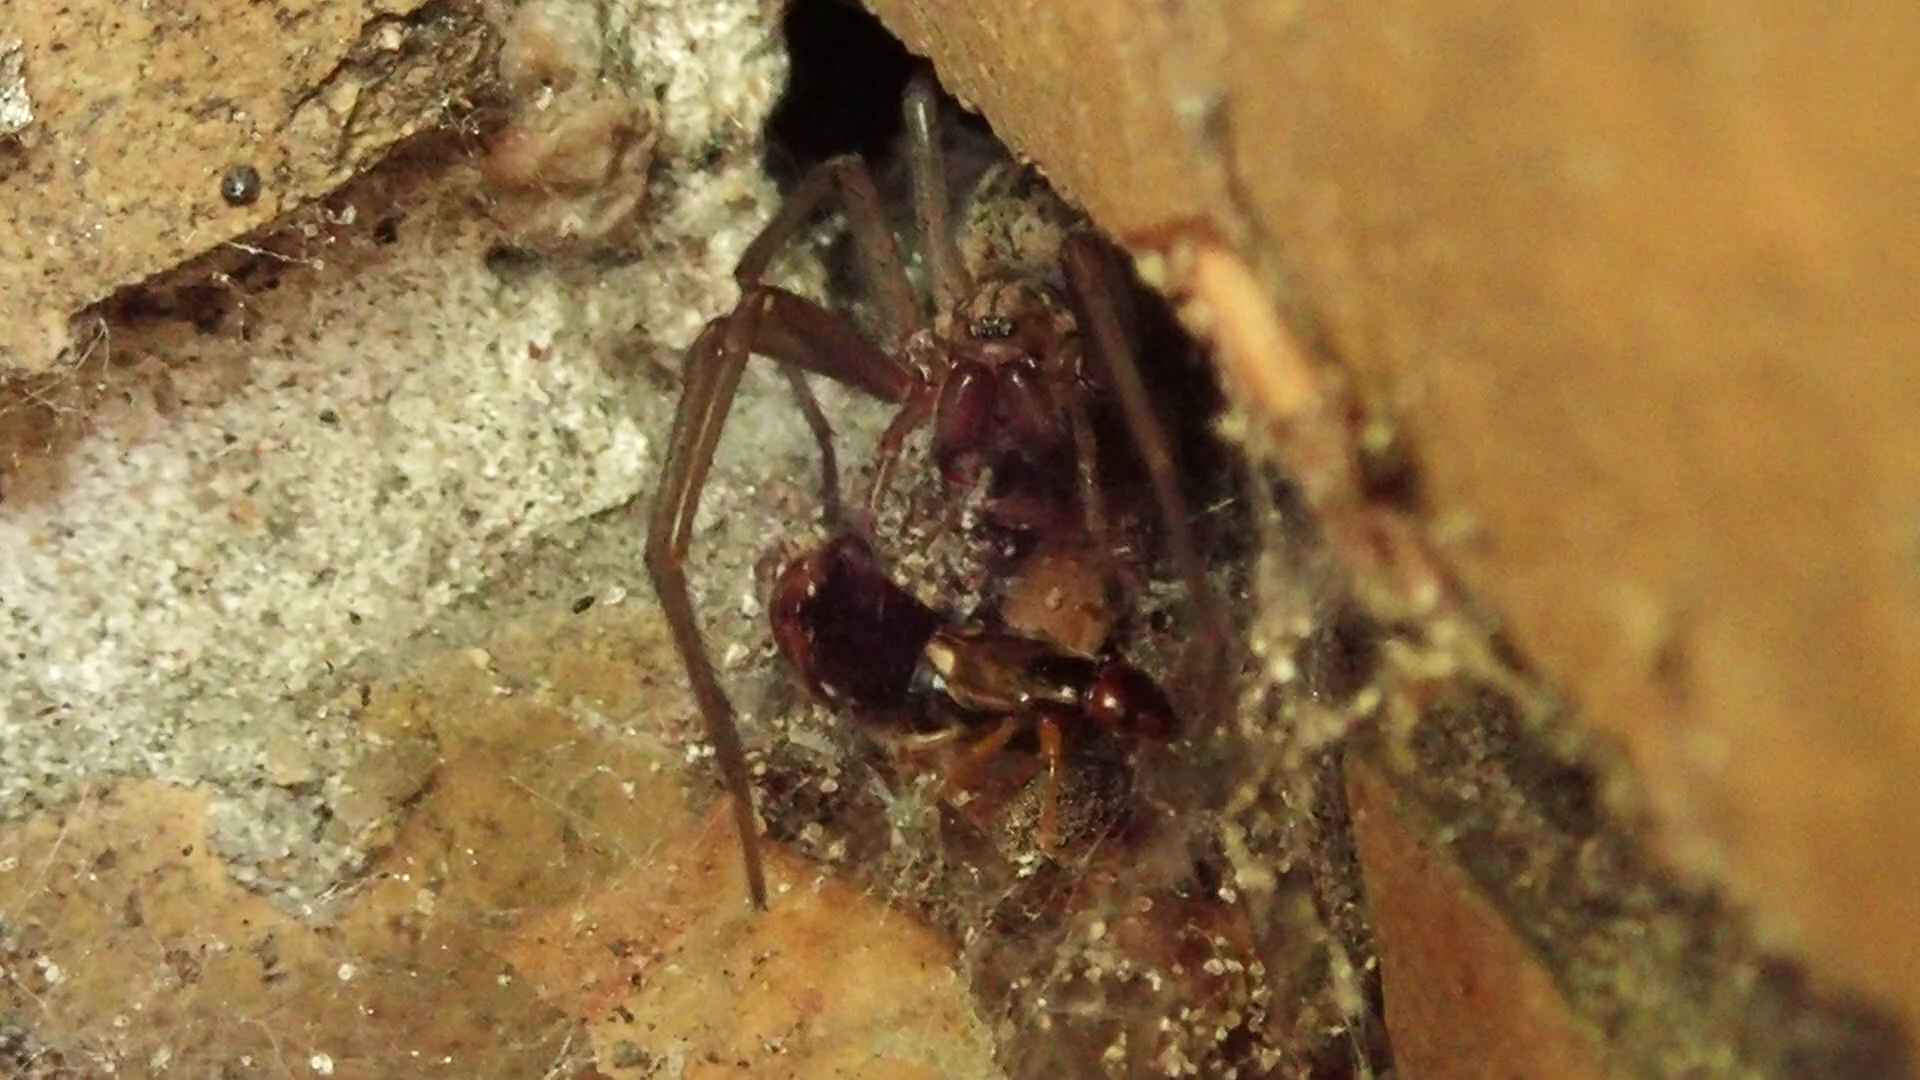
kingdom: Animalia
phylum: Arthropoda
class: Insecta
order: Dermaptera
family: Forficulidae
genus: Forficula
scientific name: Forficula
